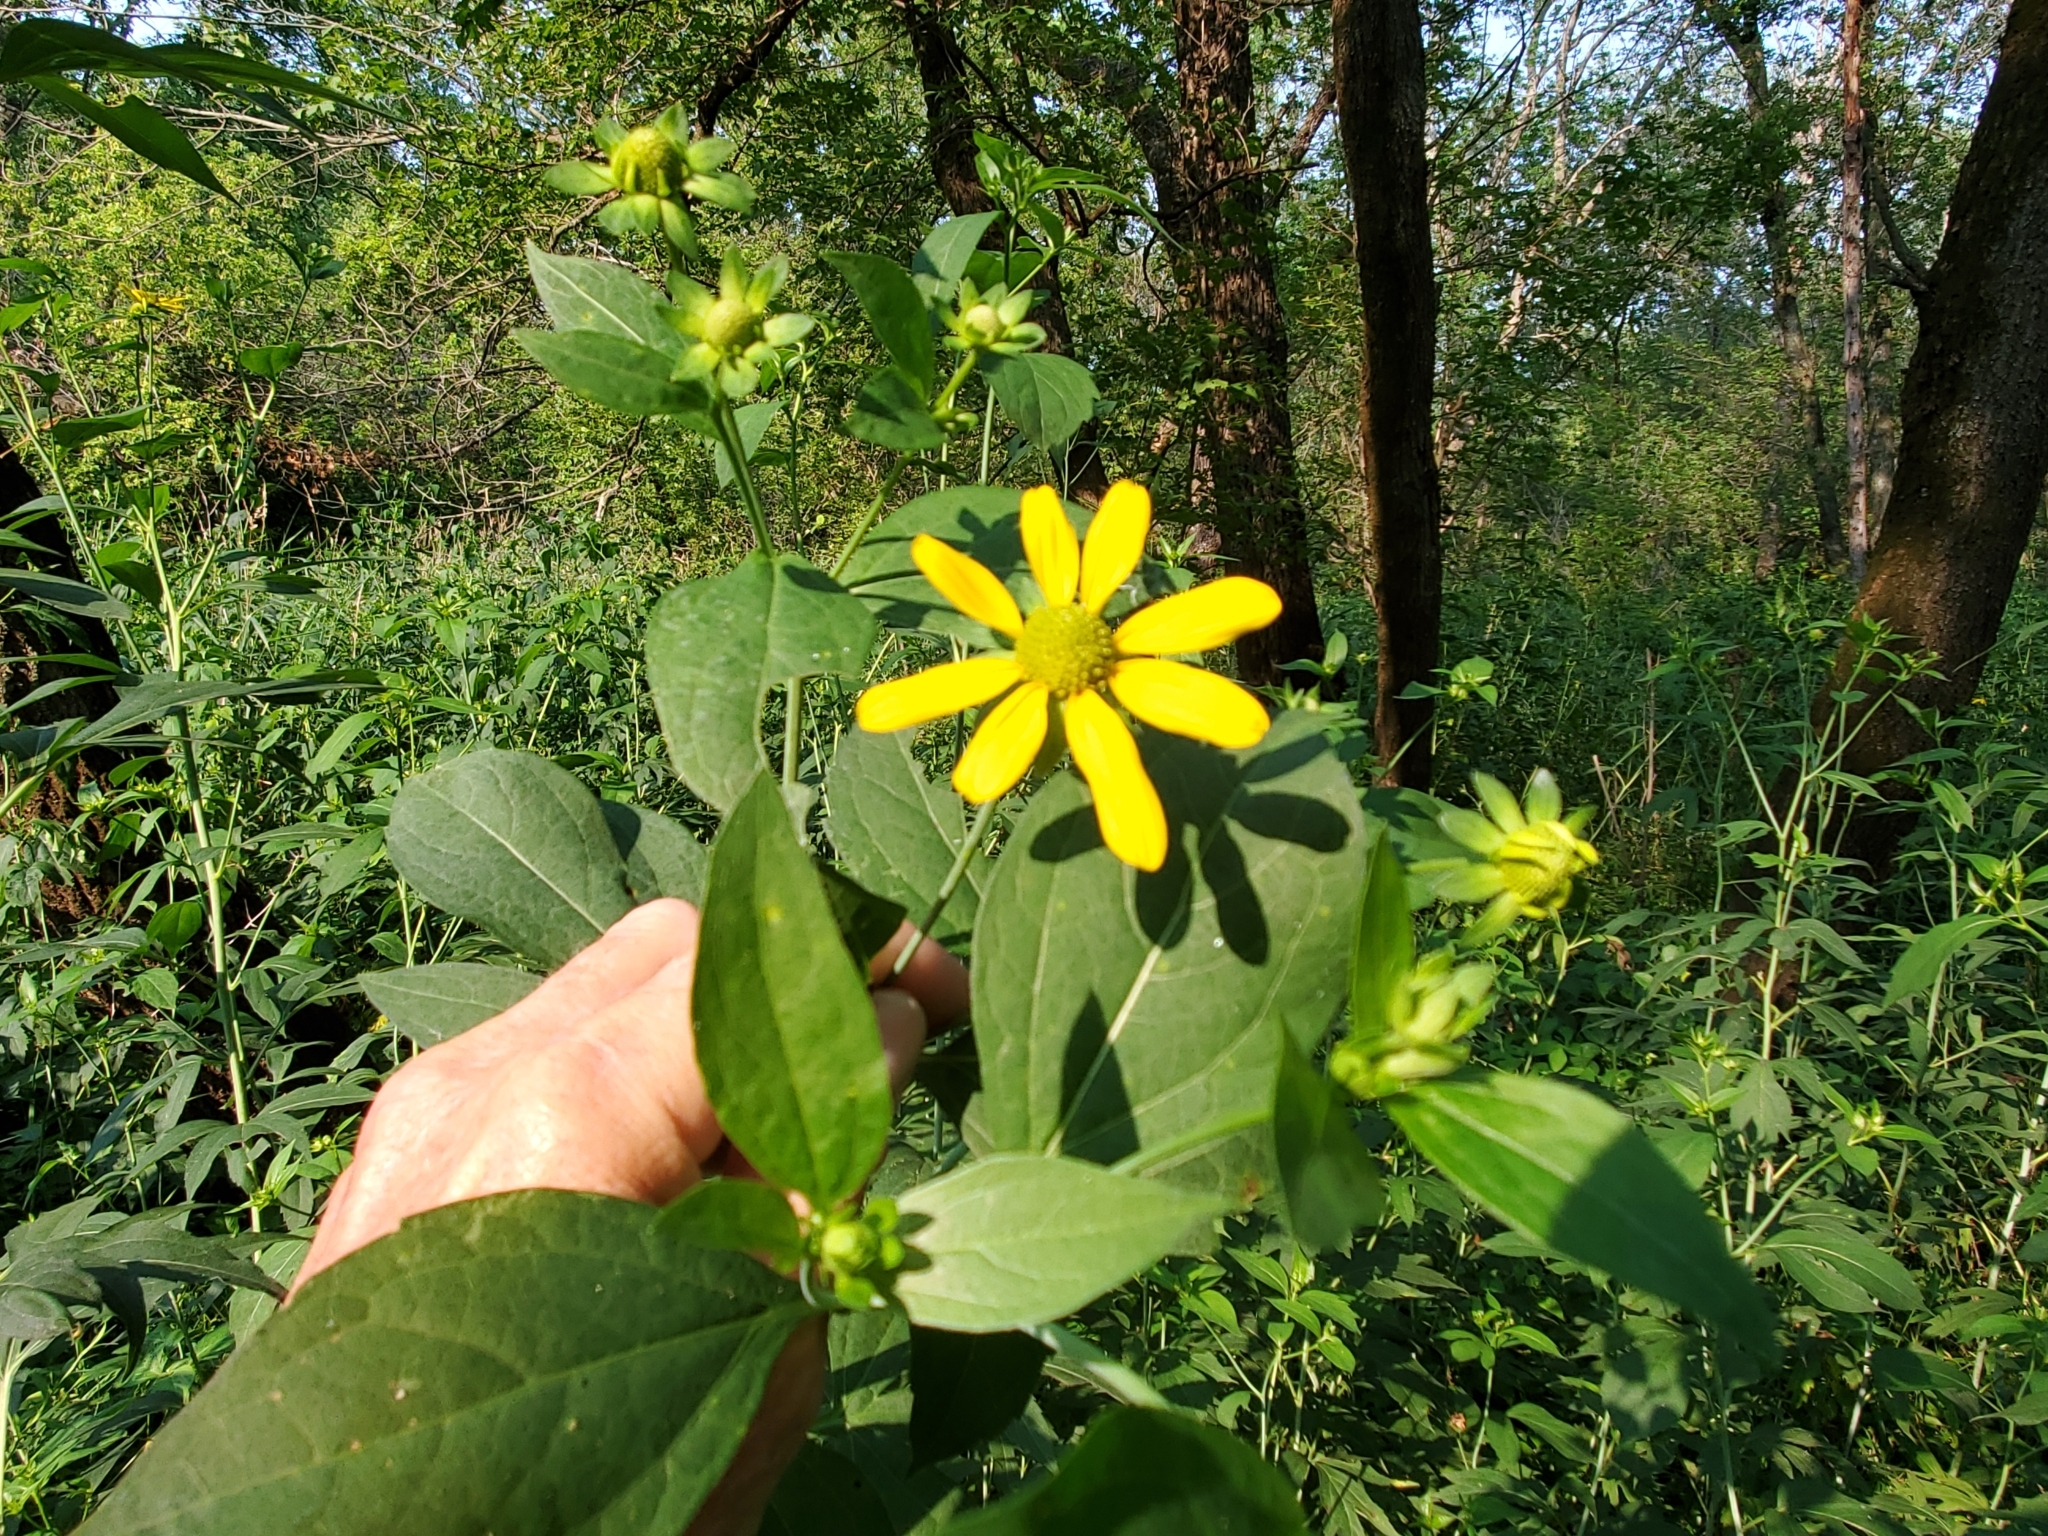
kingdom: Plantae
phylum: Tracheophyta
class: Magnoliopsida
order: Asterales
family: Asteraceae
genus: Rudbeckia
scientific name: Rudbeckia laciniata
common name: Coneflower
